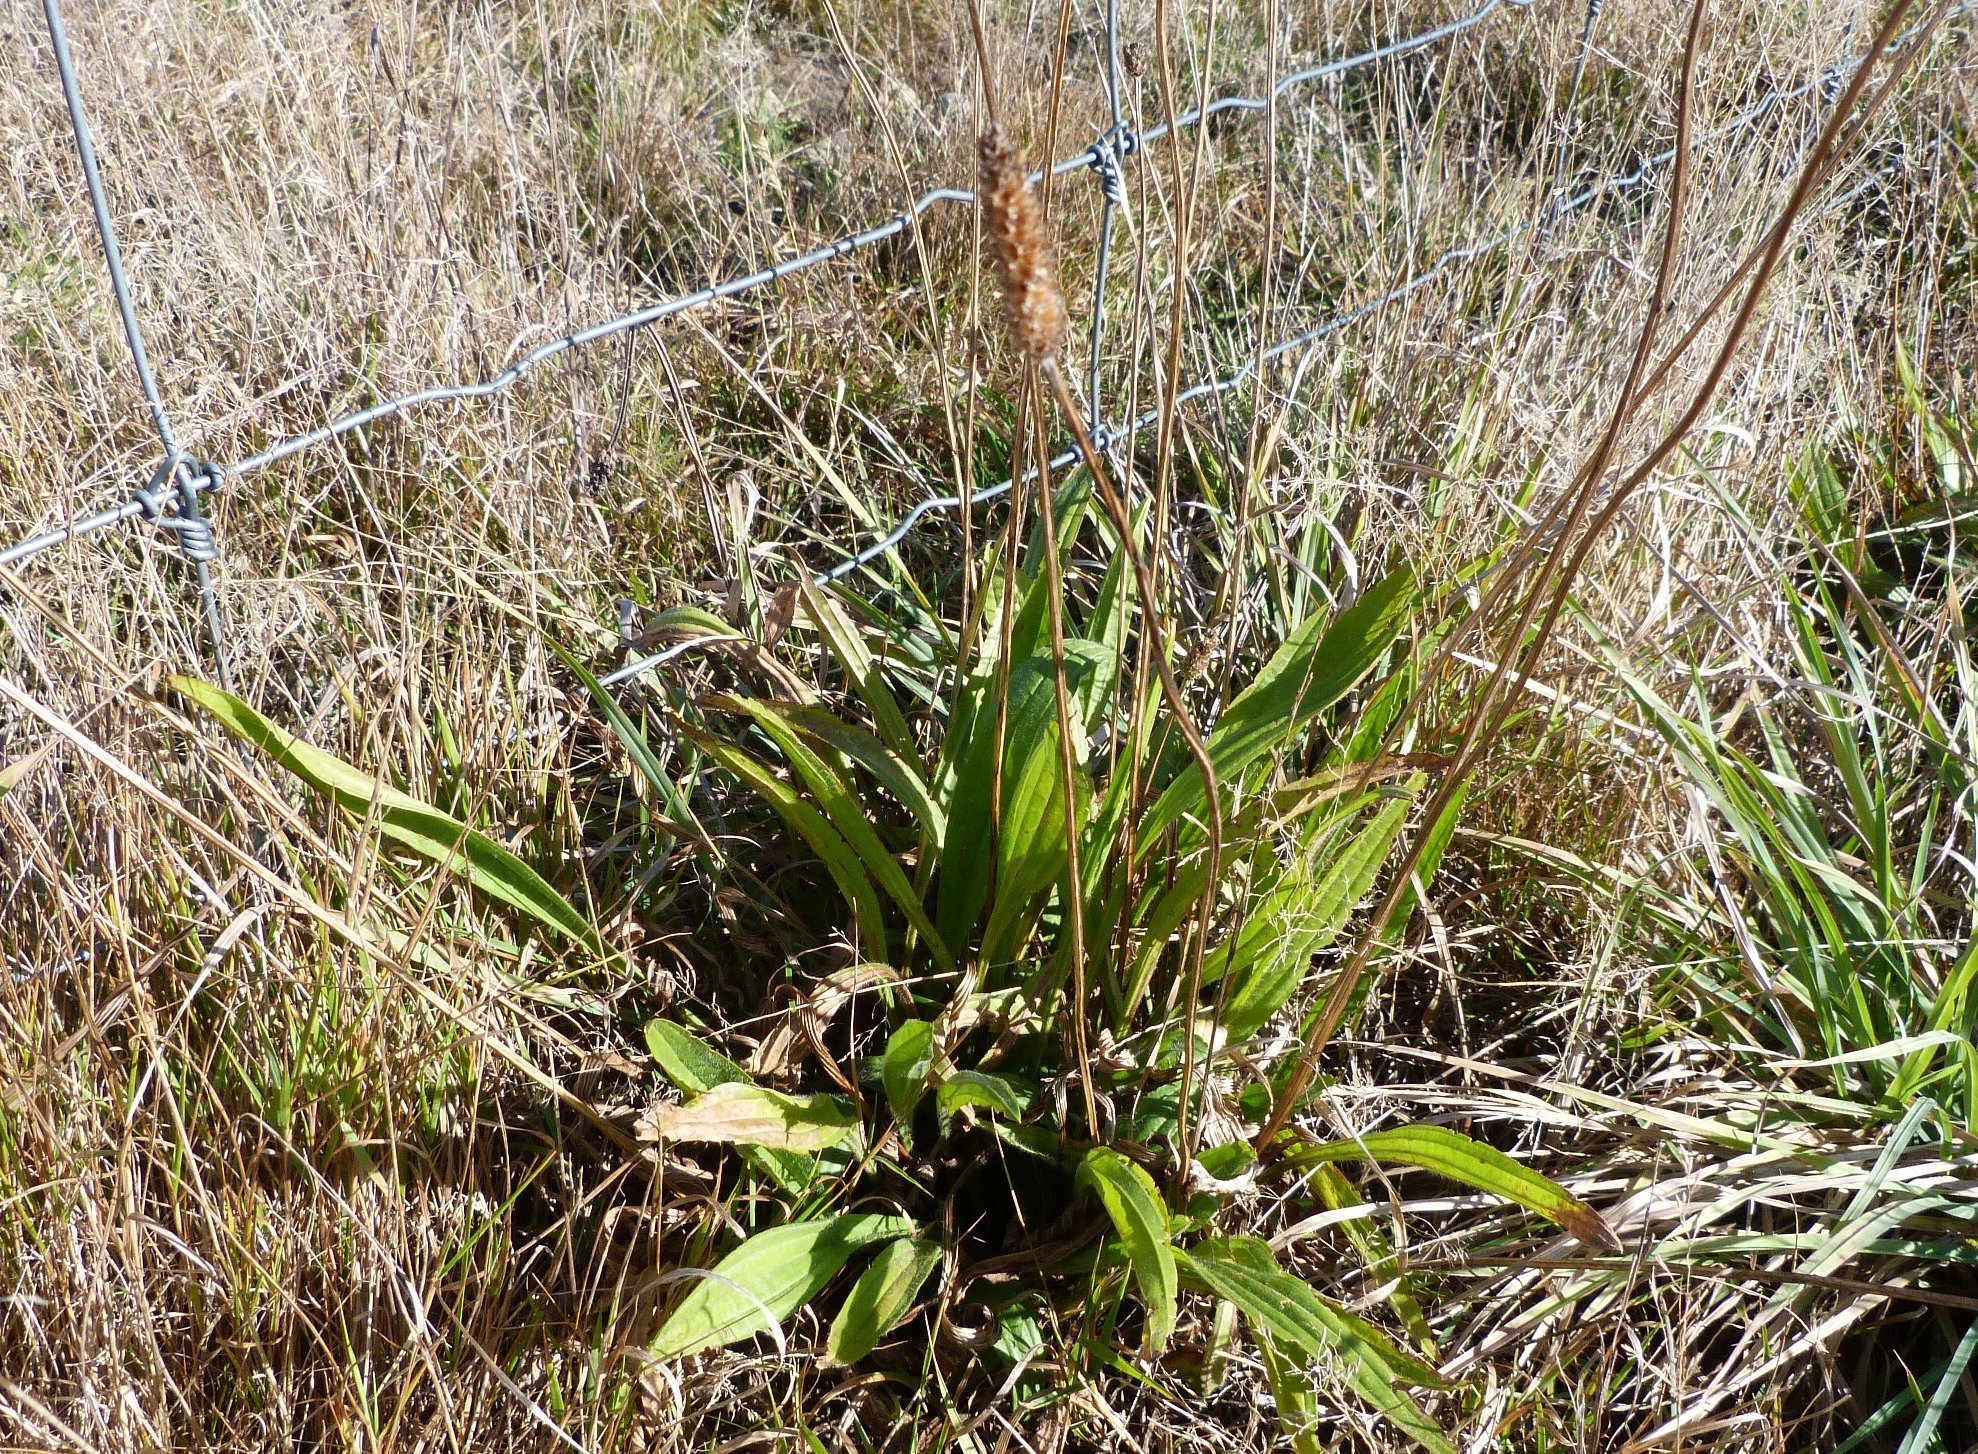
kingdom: Plantae
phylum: Tracheophyta
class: Magnoliopsida
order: Lamiales
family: Plantaginaceae
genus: Plantago
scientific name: Plantago lanceolata
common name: Ribwort plantain
